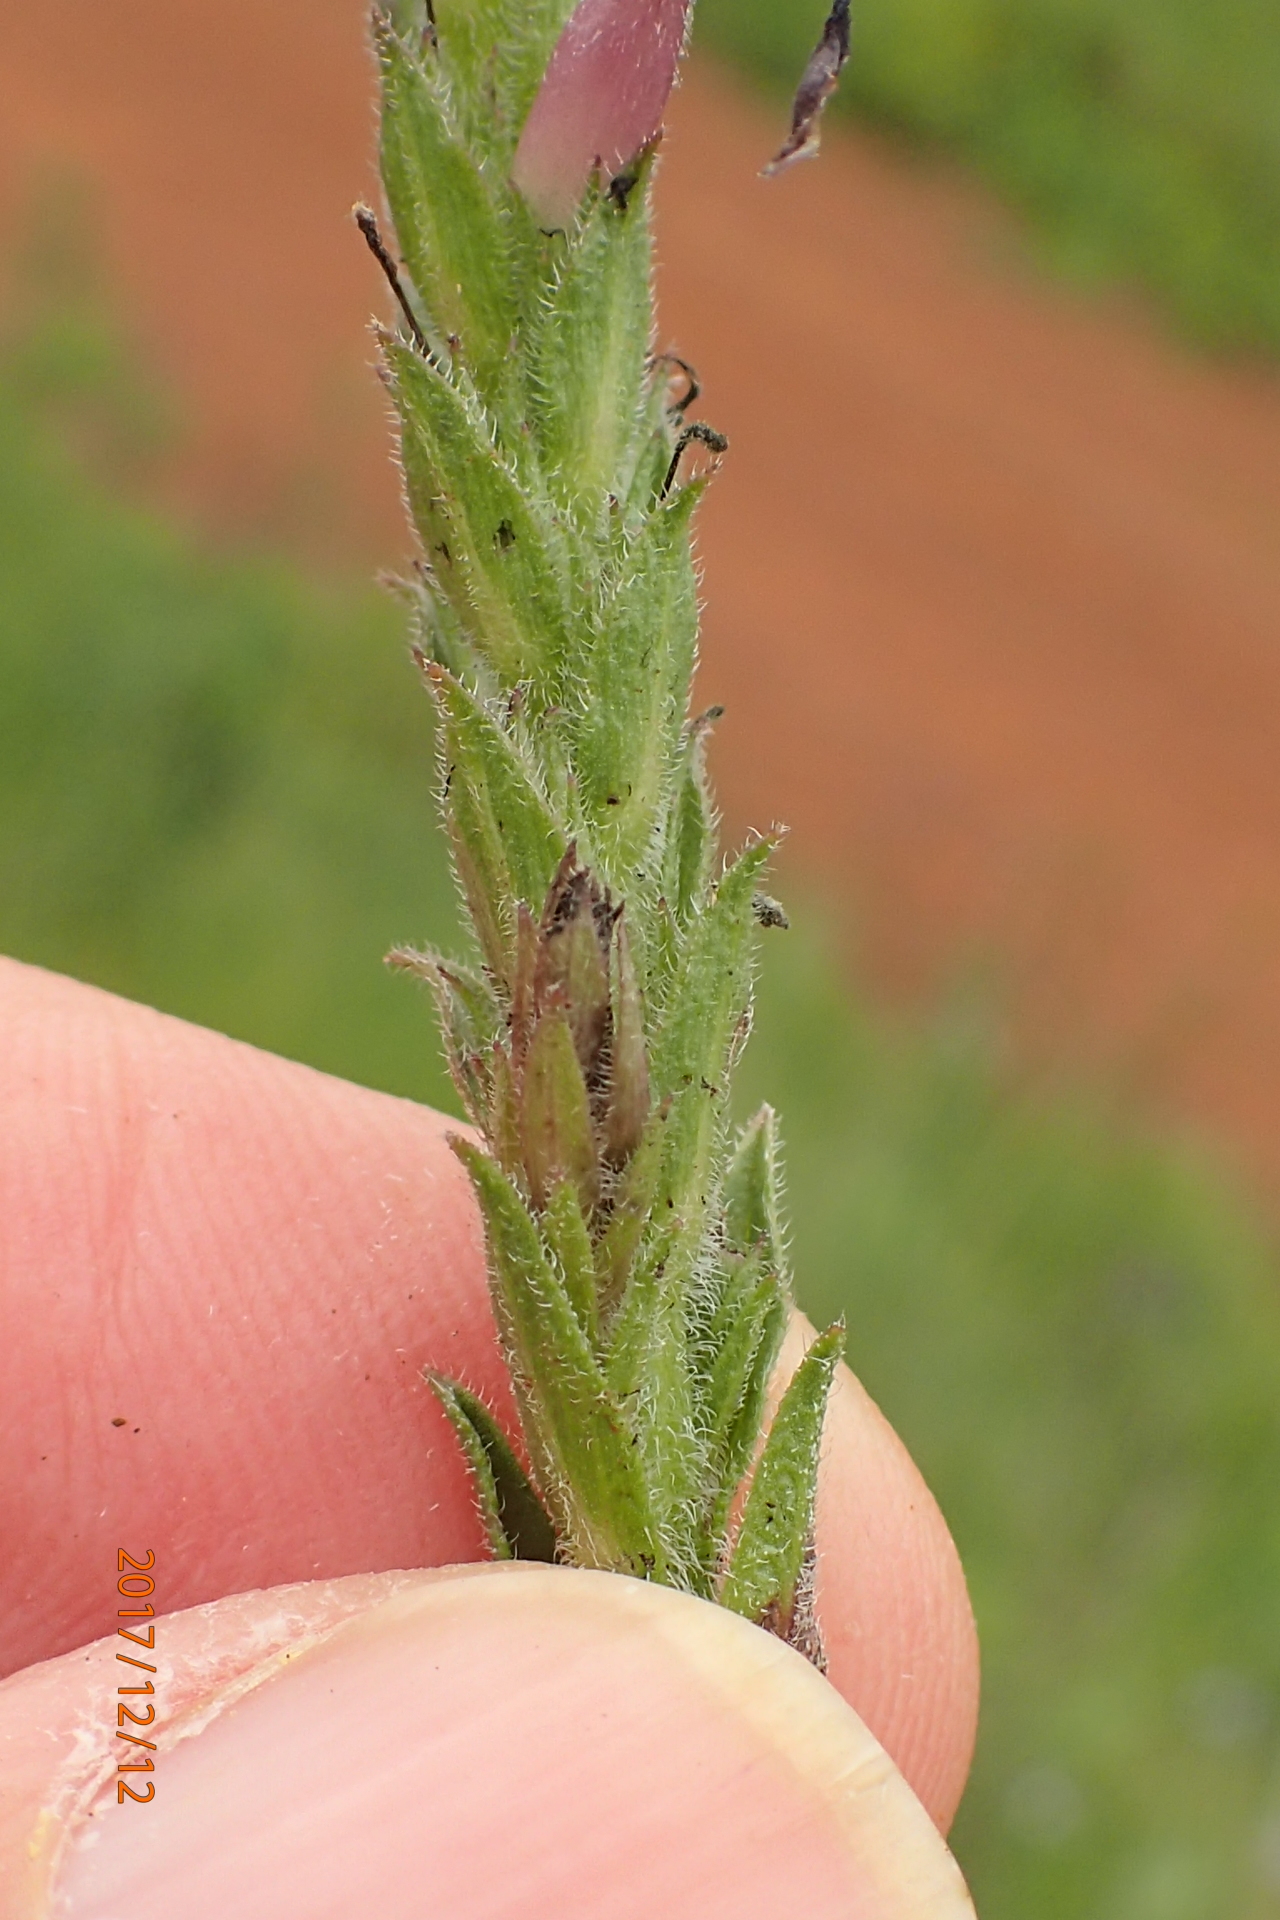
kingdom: Plantae
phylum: Tracheophyta
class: Magnoliopsida
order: Lamiales
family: Orobanchaceae
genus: Striga
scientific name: Striga bilabiata
